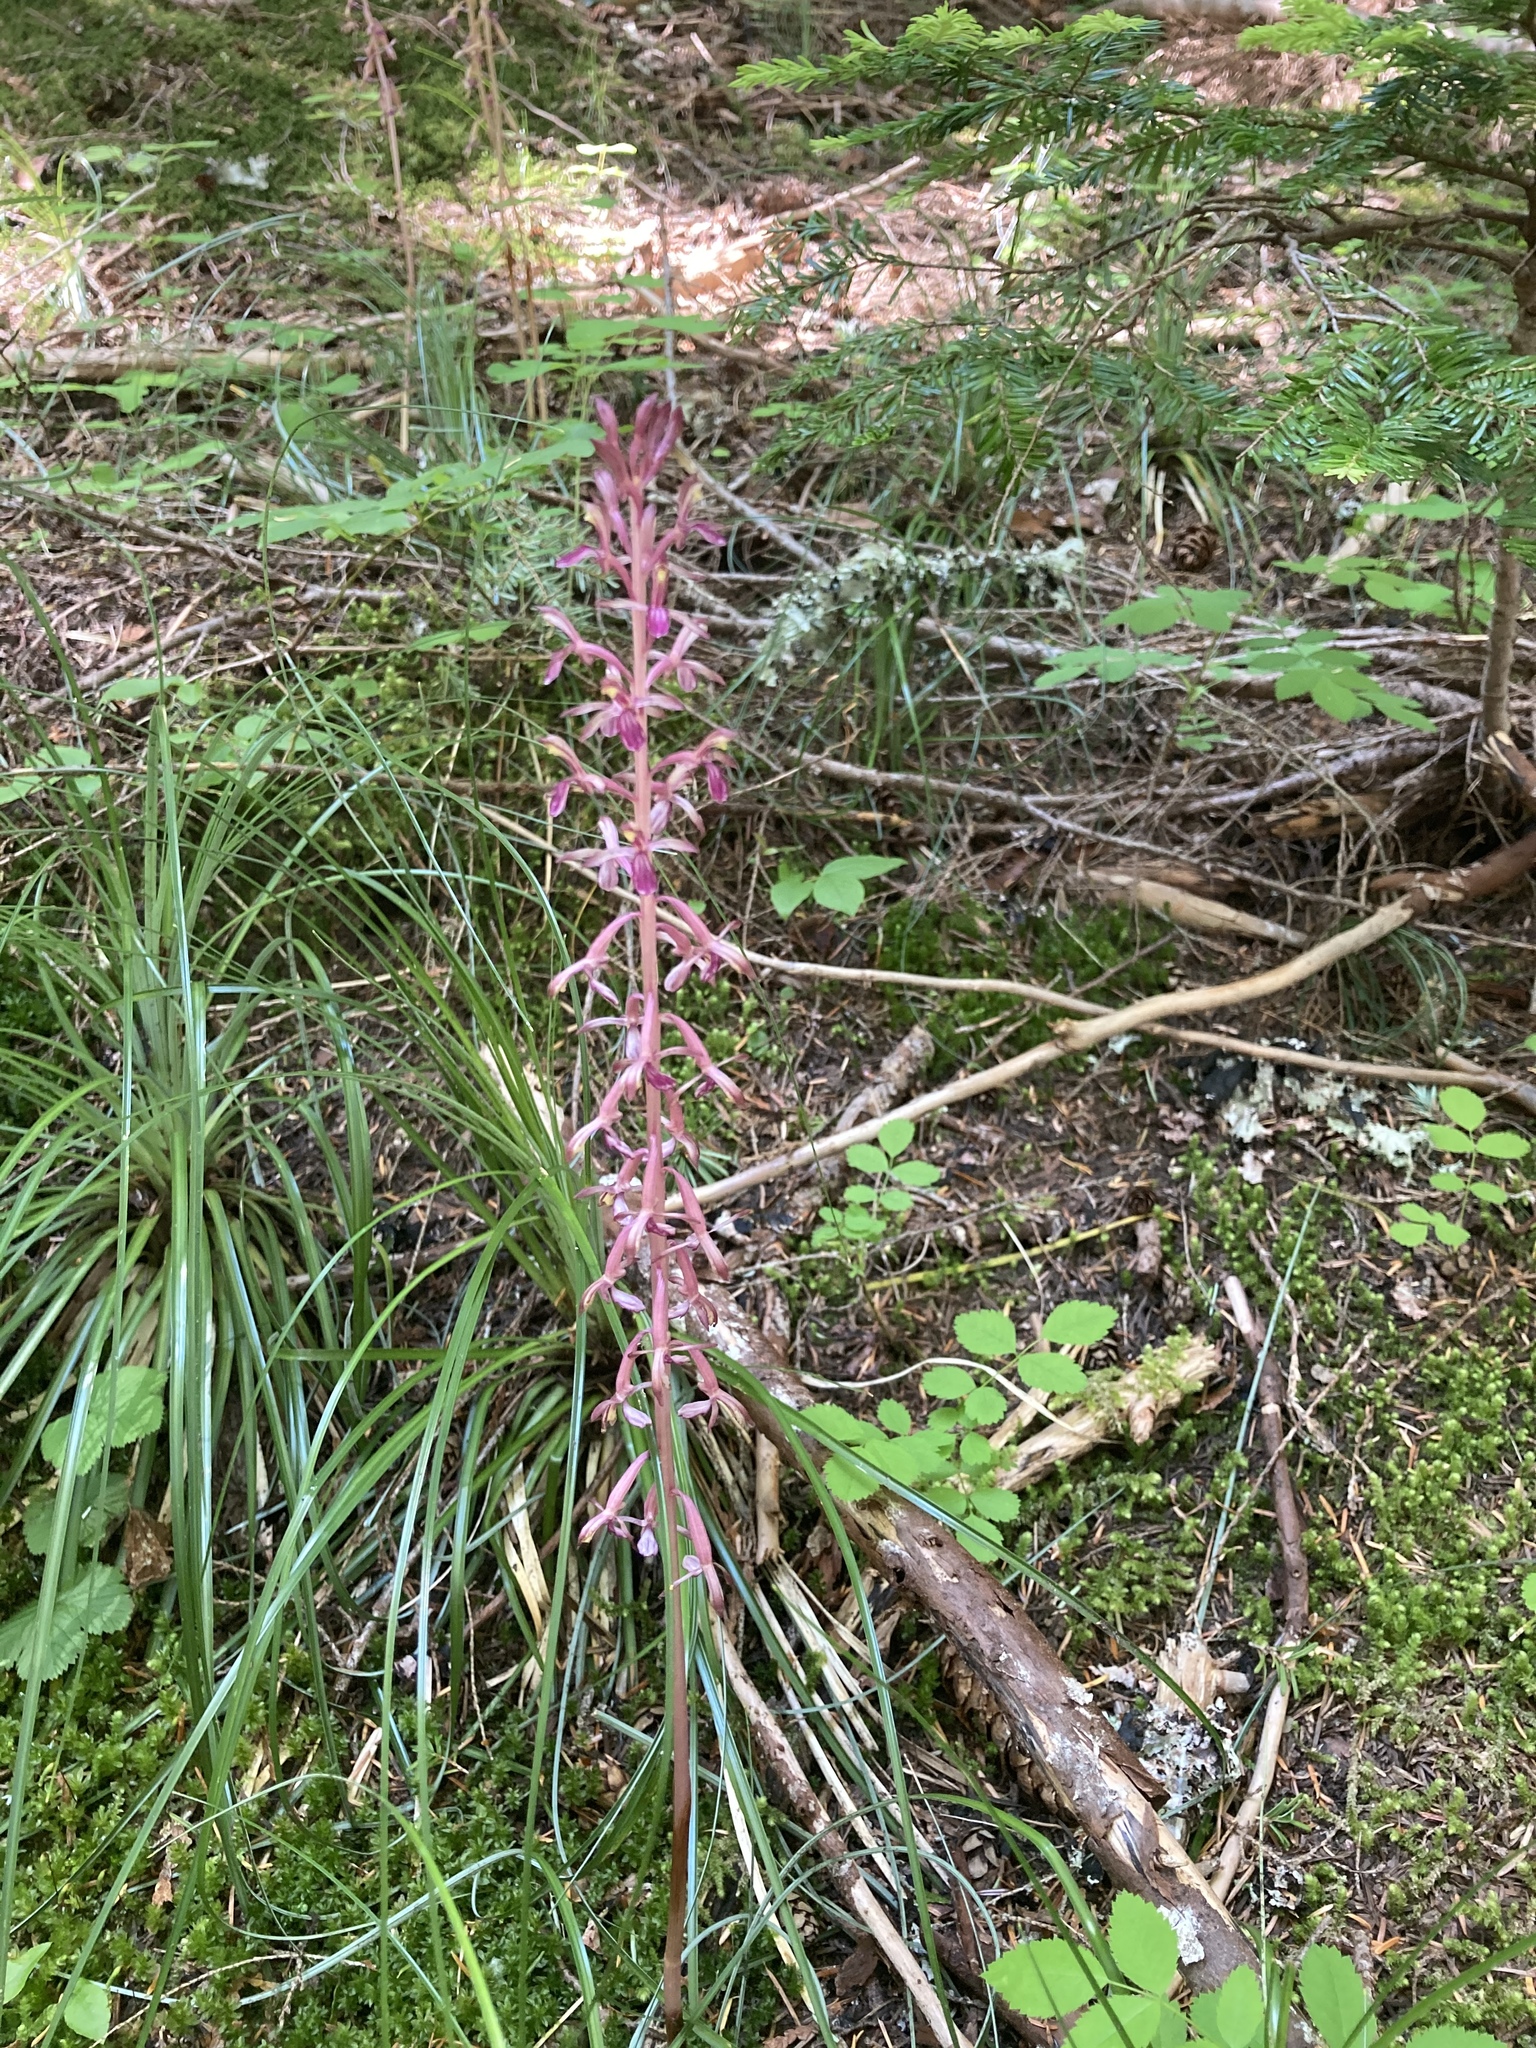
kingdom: Plantae
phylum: Tracheophyta
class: Liliopsida
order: Asparagales
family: Orchidaceae
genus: Corallorhiza
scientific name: Corallorhiza mertensiana
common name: Pacific coralroot
